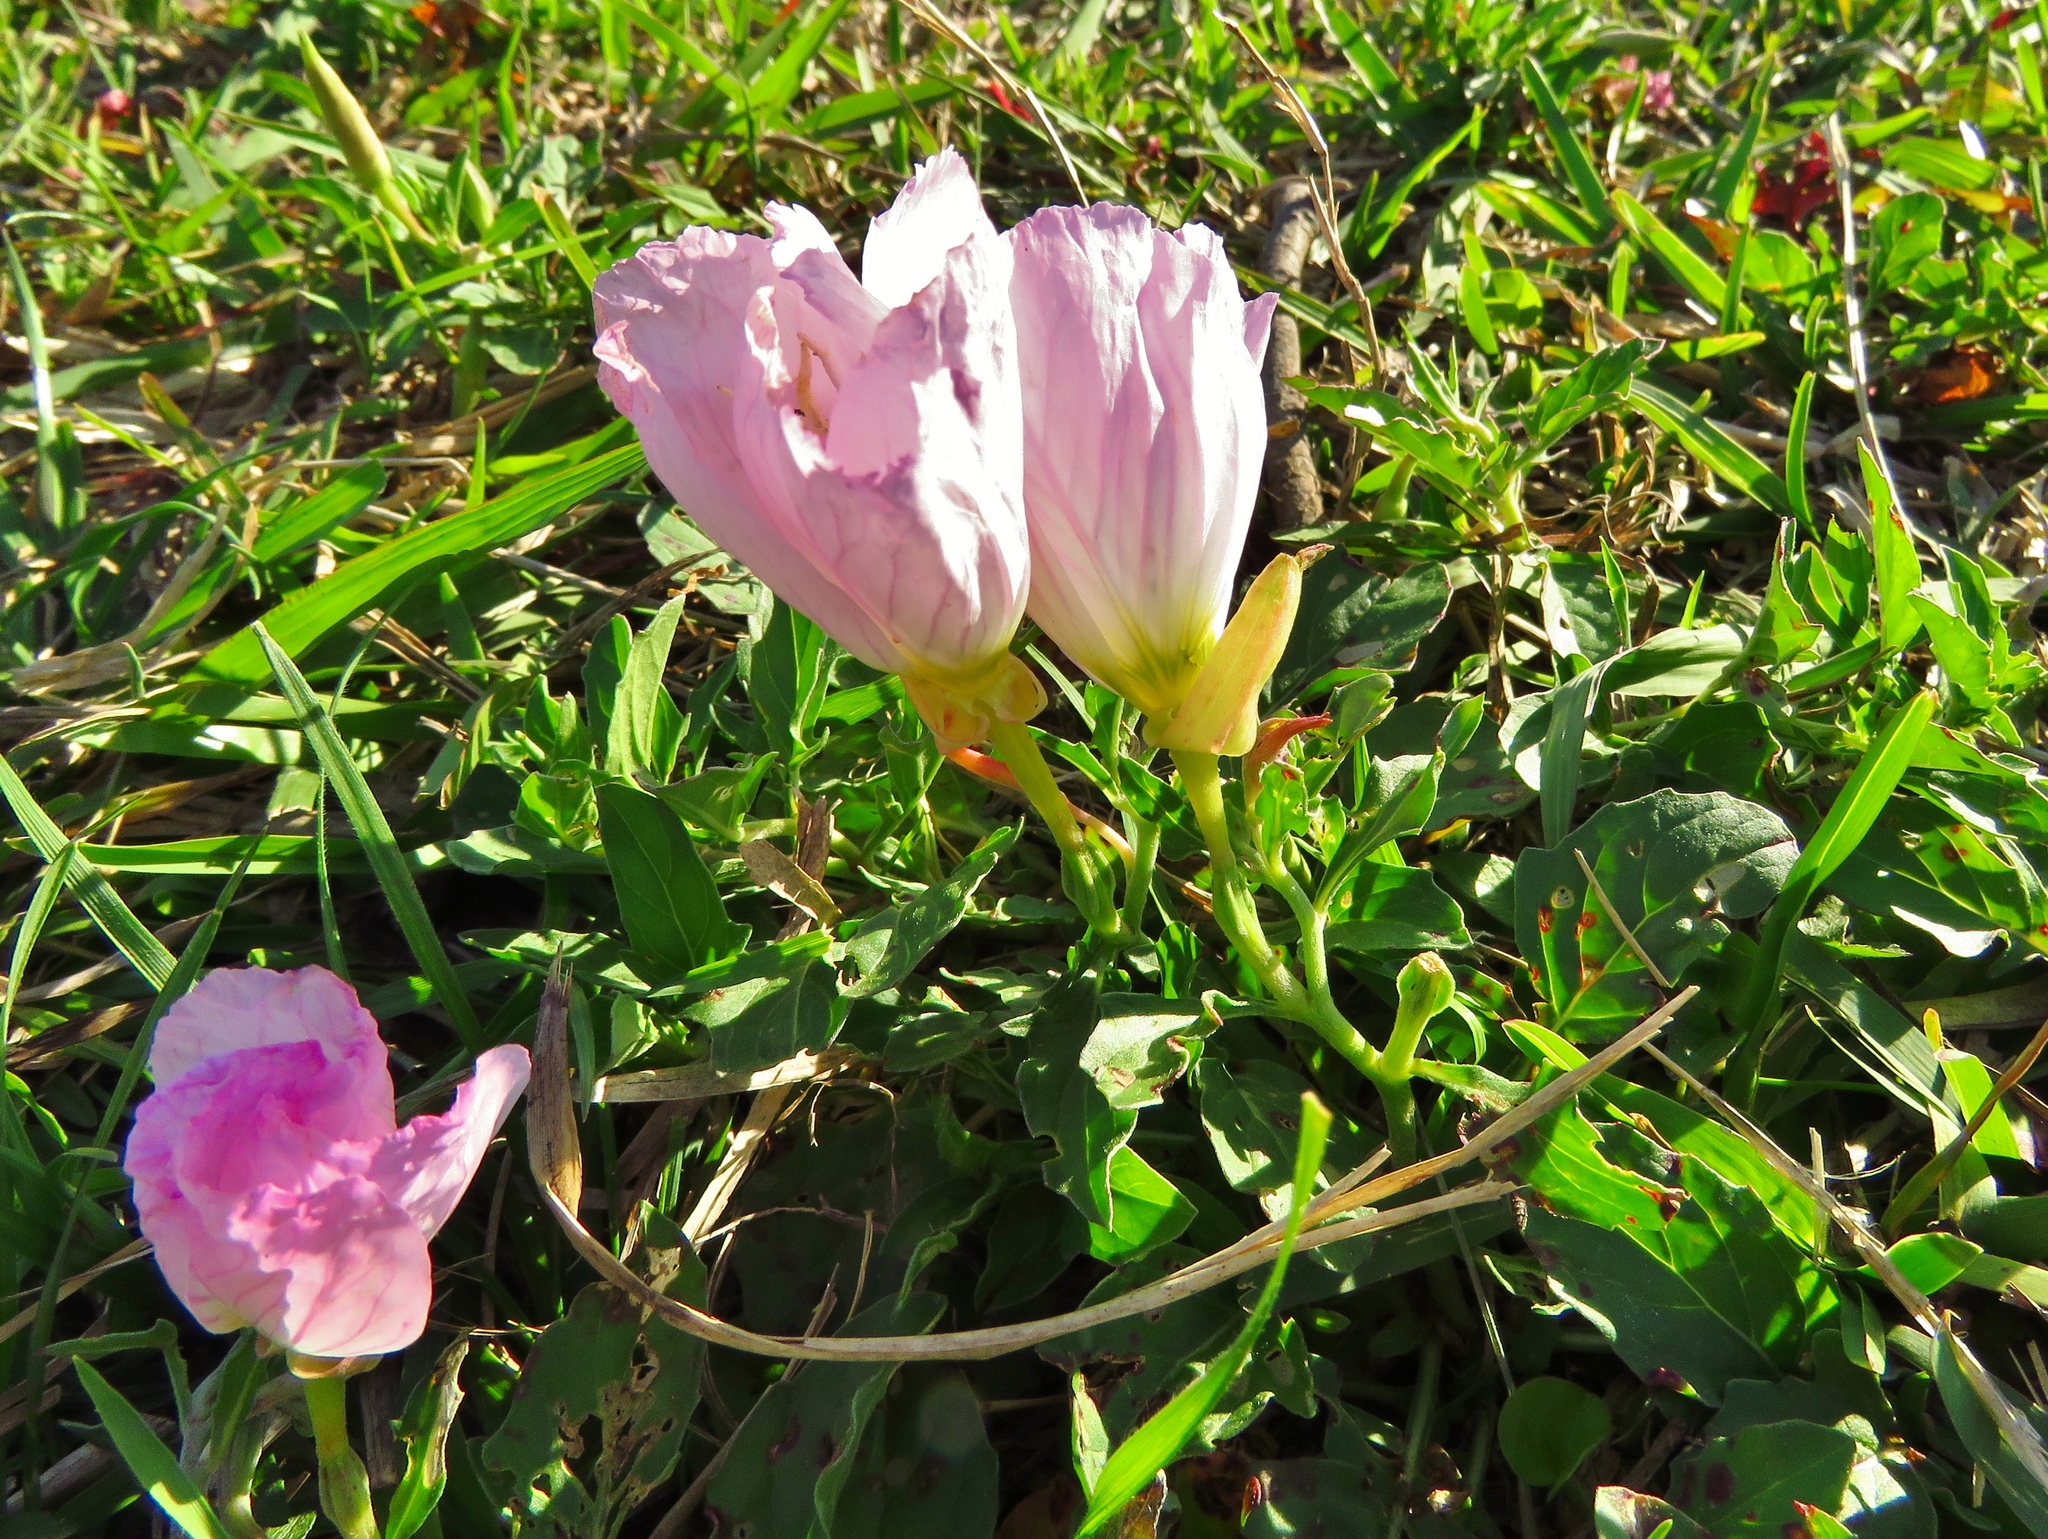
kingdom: Plantae
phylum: Tracheophyta
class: Magnoliopsida
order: Myrtales
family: Onagraceae
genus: Oenothera
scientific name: Oenothera speciosa
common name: White evening-primrose
